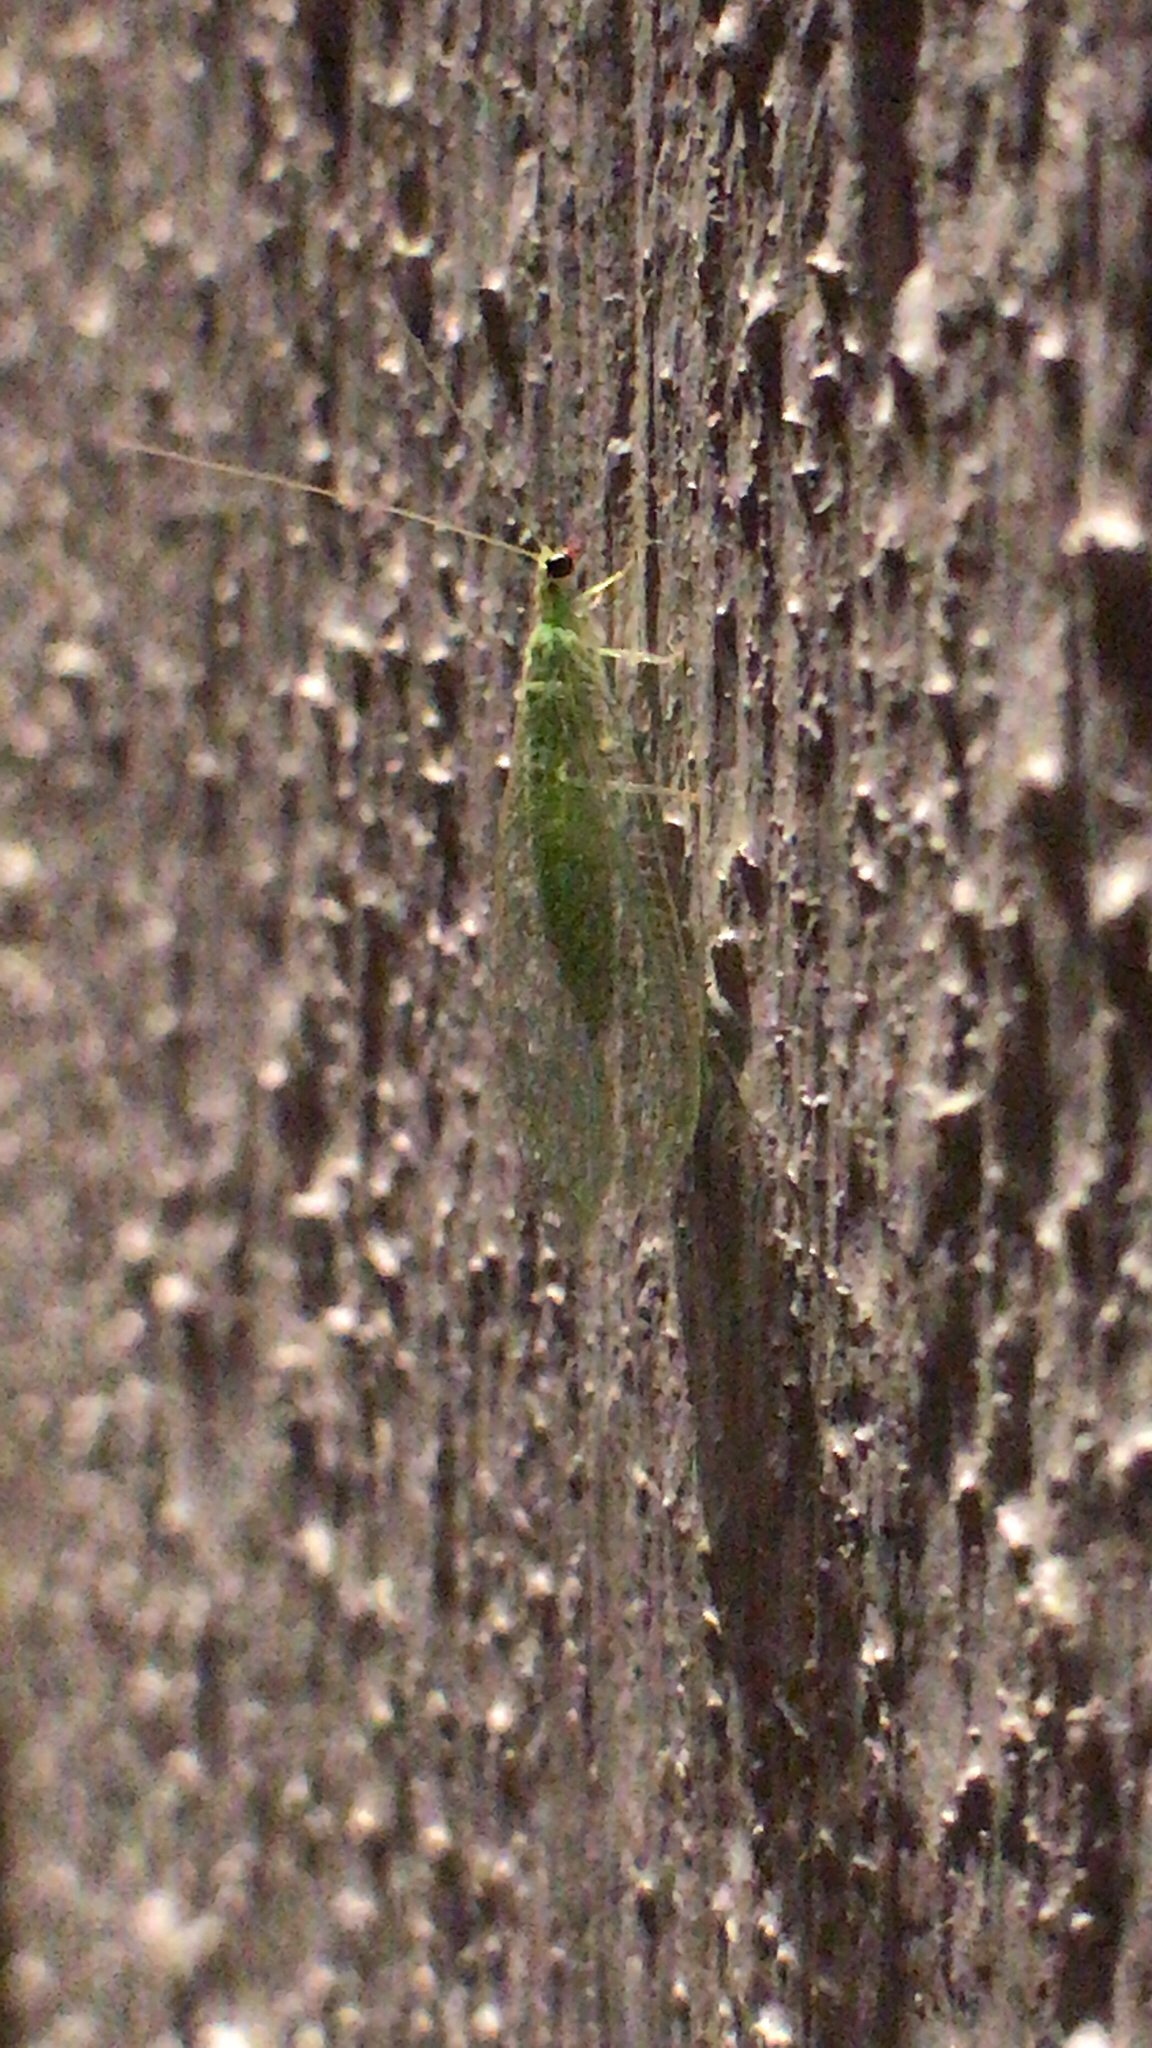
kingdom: Animalia
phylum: Arthropoda
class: Insecta
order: Neuroptera
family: Chrysopidae
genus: Chrysoperla
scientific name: Chrysoperla
